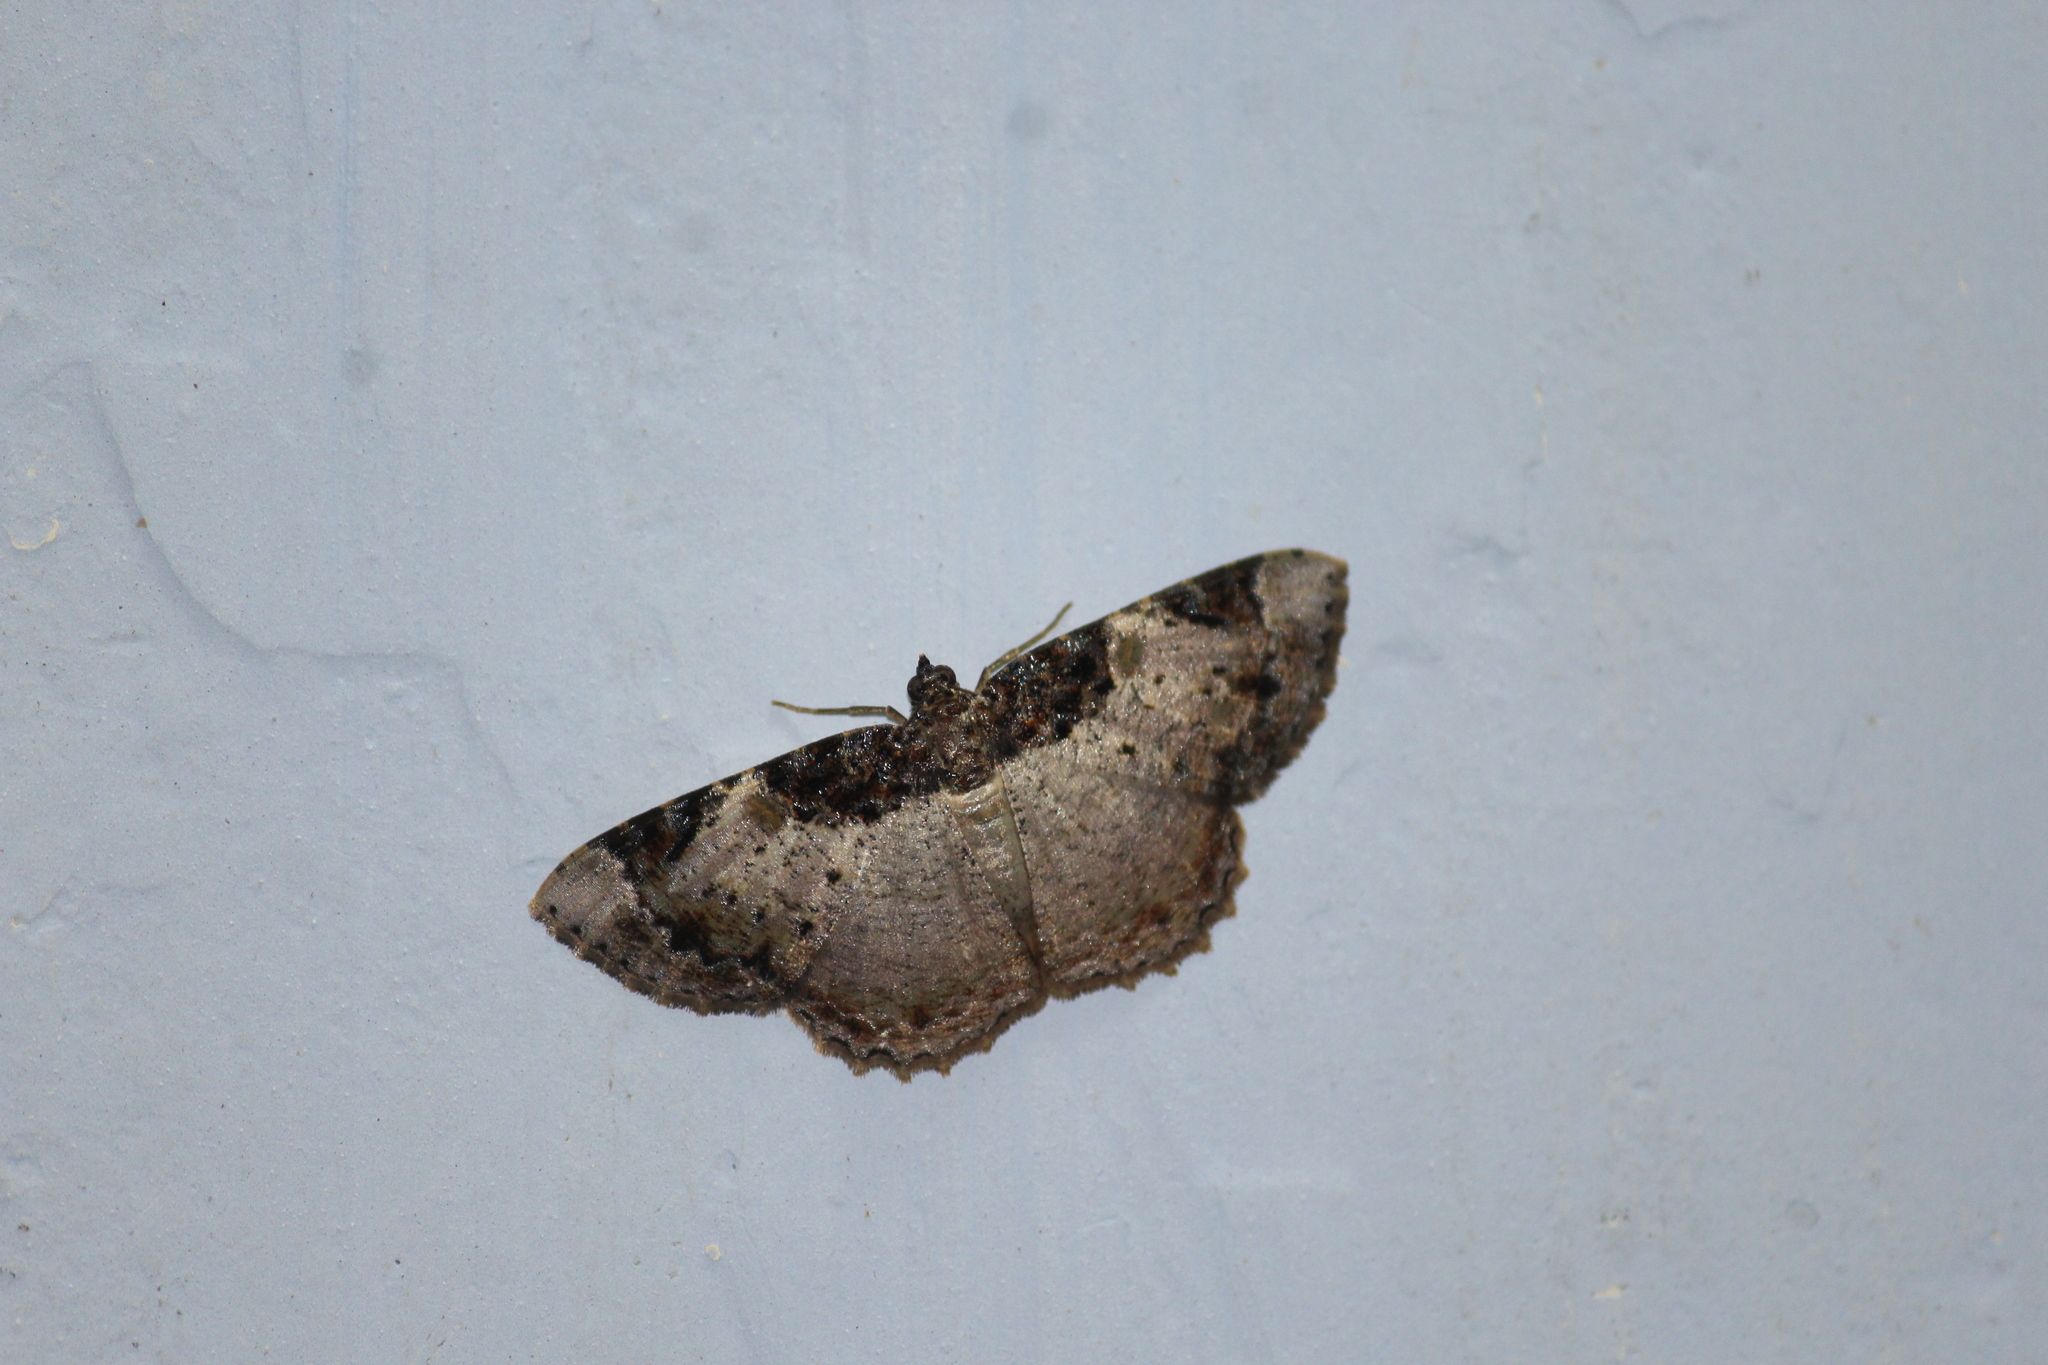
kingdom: Animalia
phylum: Arthropoda
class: Insecta
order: Lepidoptera
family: Geometridae
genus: Cassephyra
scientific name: Cassephyra lamprosticta
